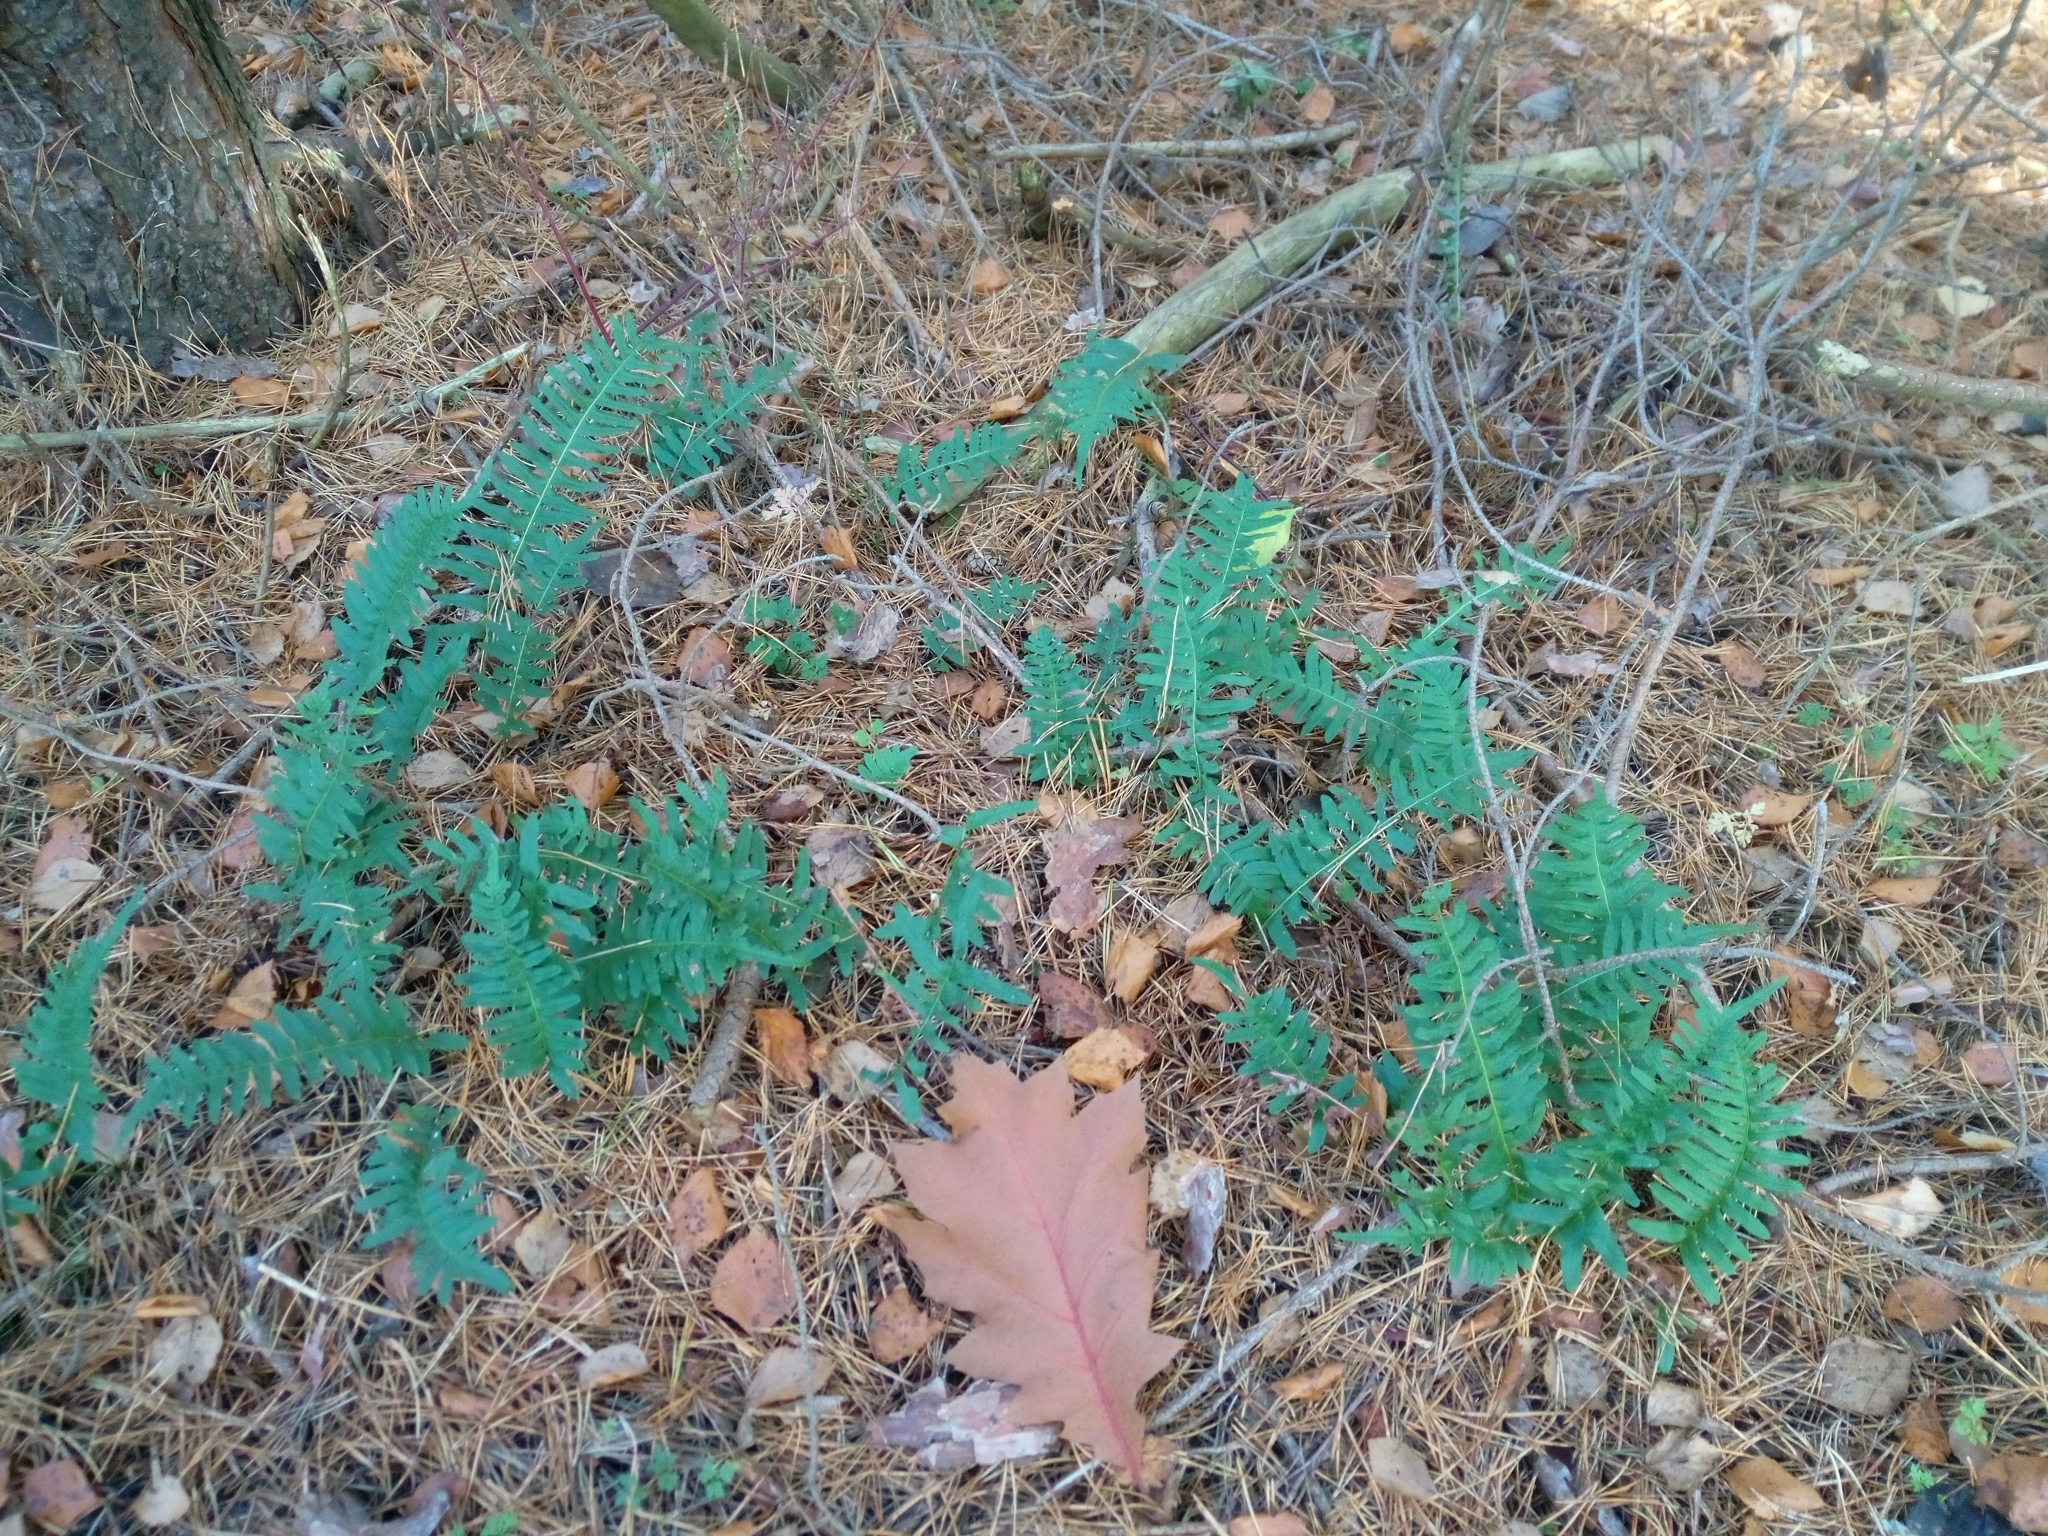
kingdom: Plantae
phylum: Tracheophyta
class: Polypodiopsida
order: Polypodiales
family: Polypodiaceae
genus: Polypodium
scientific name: Polypodium vulgare
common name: Common polypody
